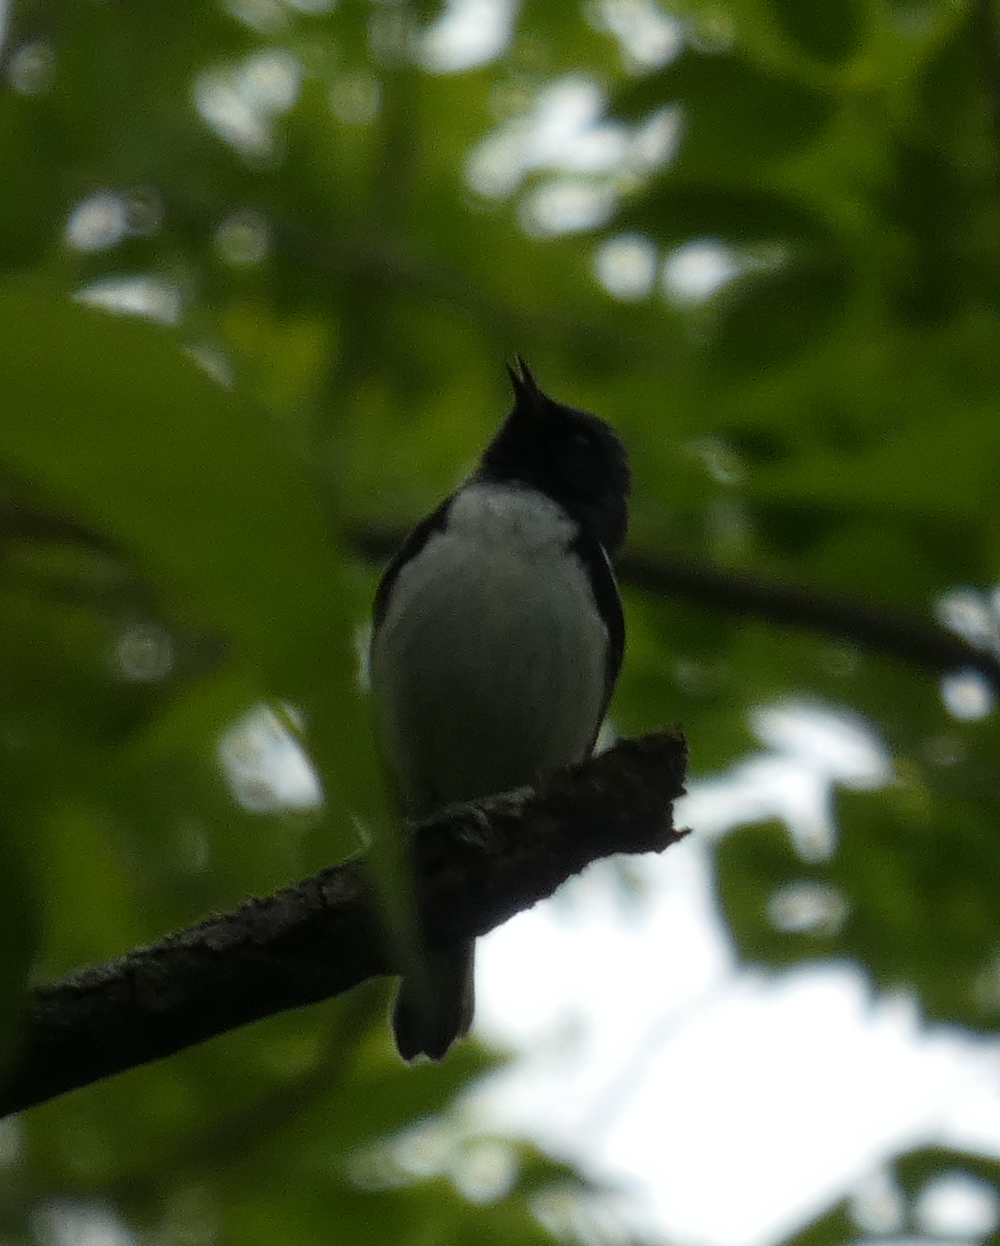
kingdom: Animalia
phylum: Chordata
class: Aves
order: Passeriformes
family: Parulidae
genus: Setophaga
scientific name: Setophaga caerulescens
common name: Black-throated blue warbler
